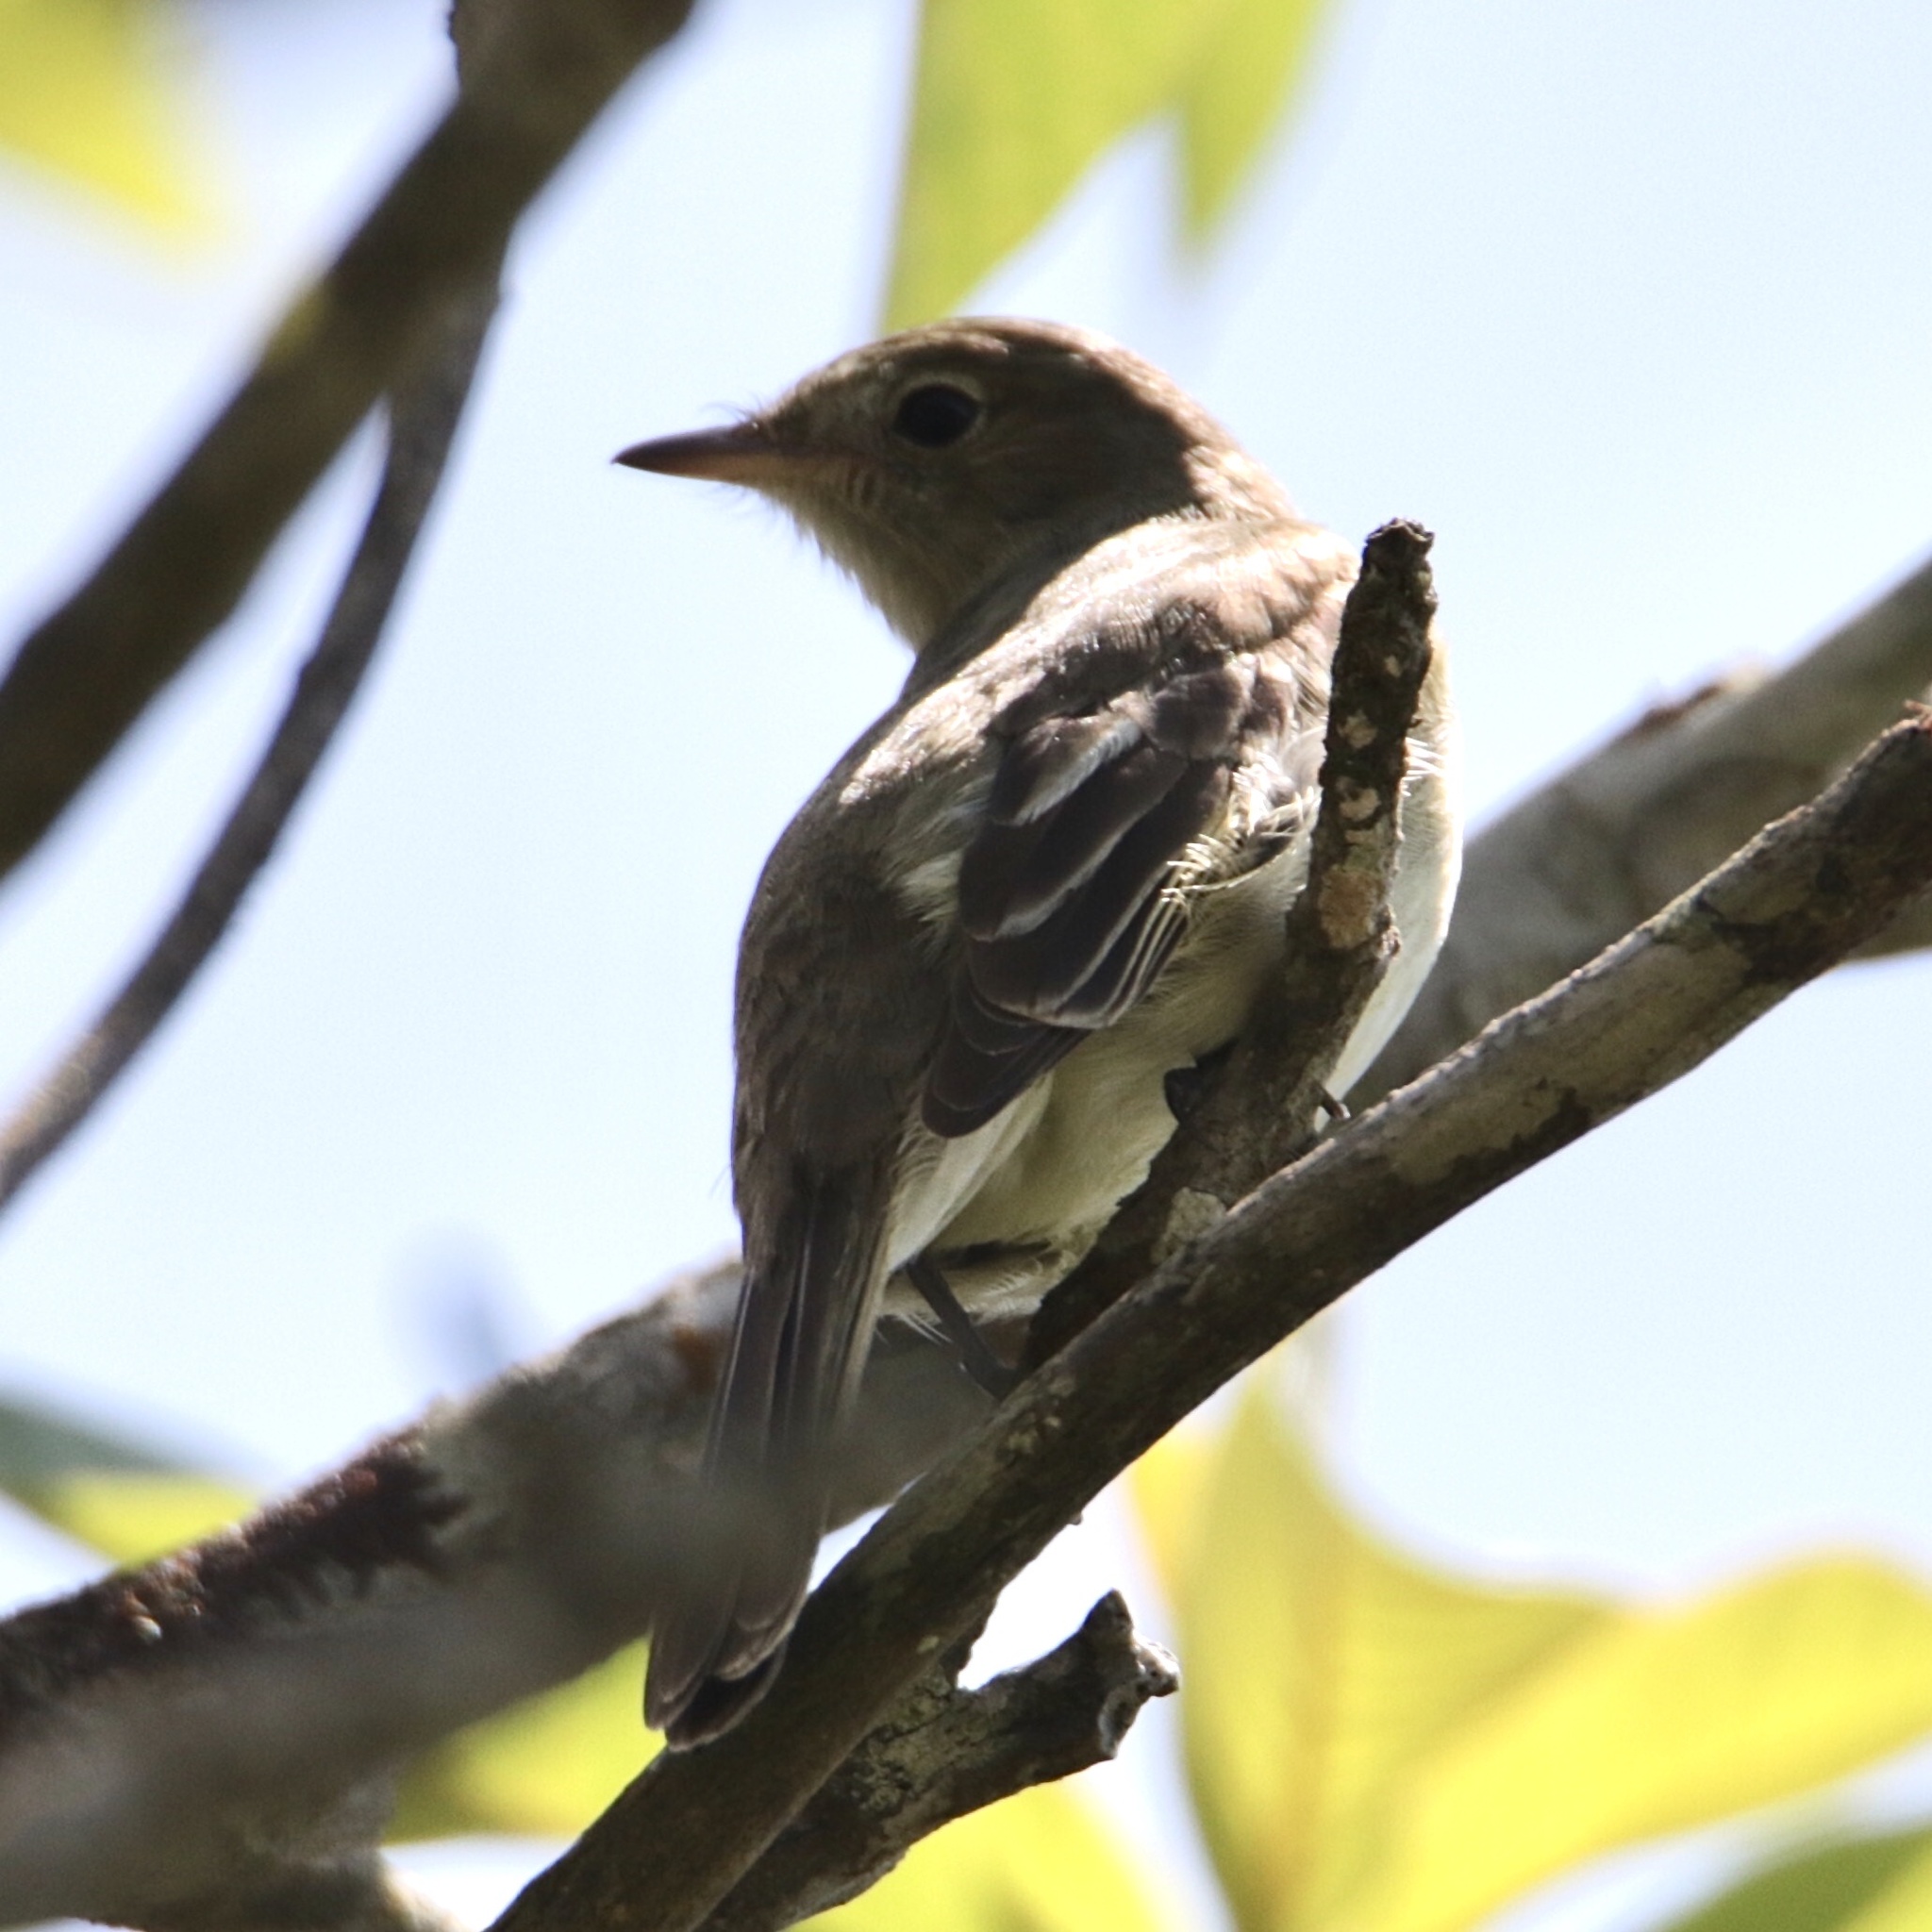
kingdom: Animalia
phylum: Chordata
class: Aves
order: Passeriformes
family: Tyrannidae
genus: Elaenia
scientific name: Elaenia chiriquensis
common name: Lesser elaenia
